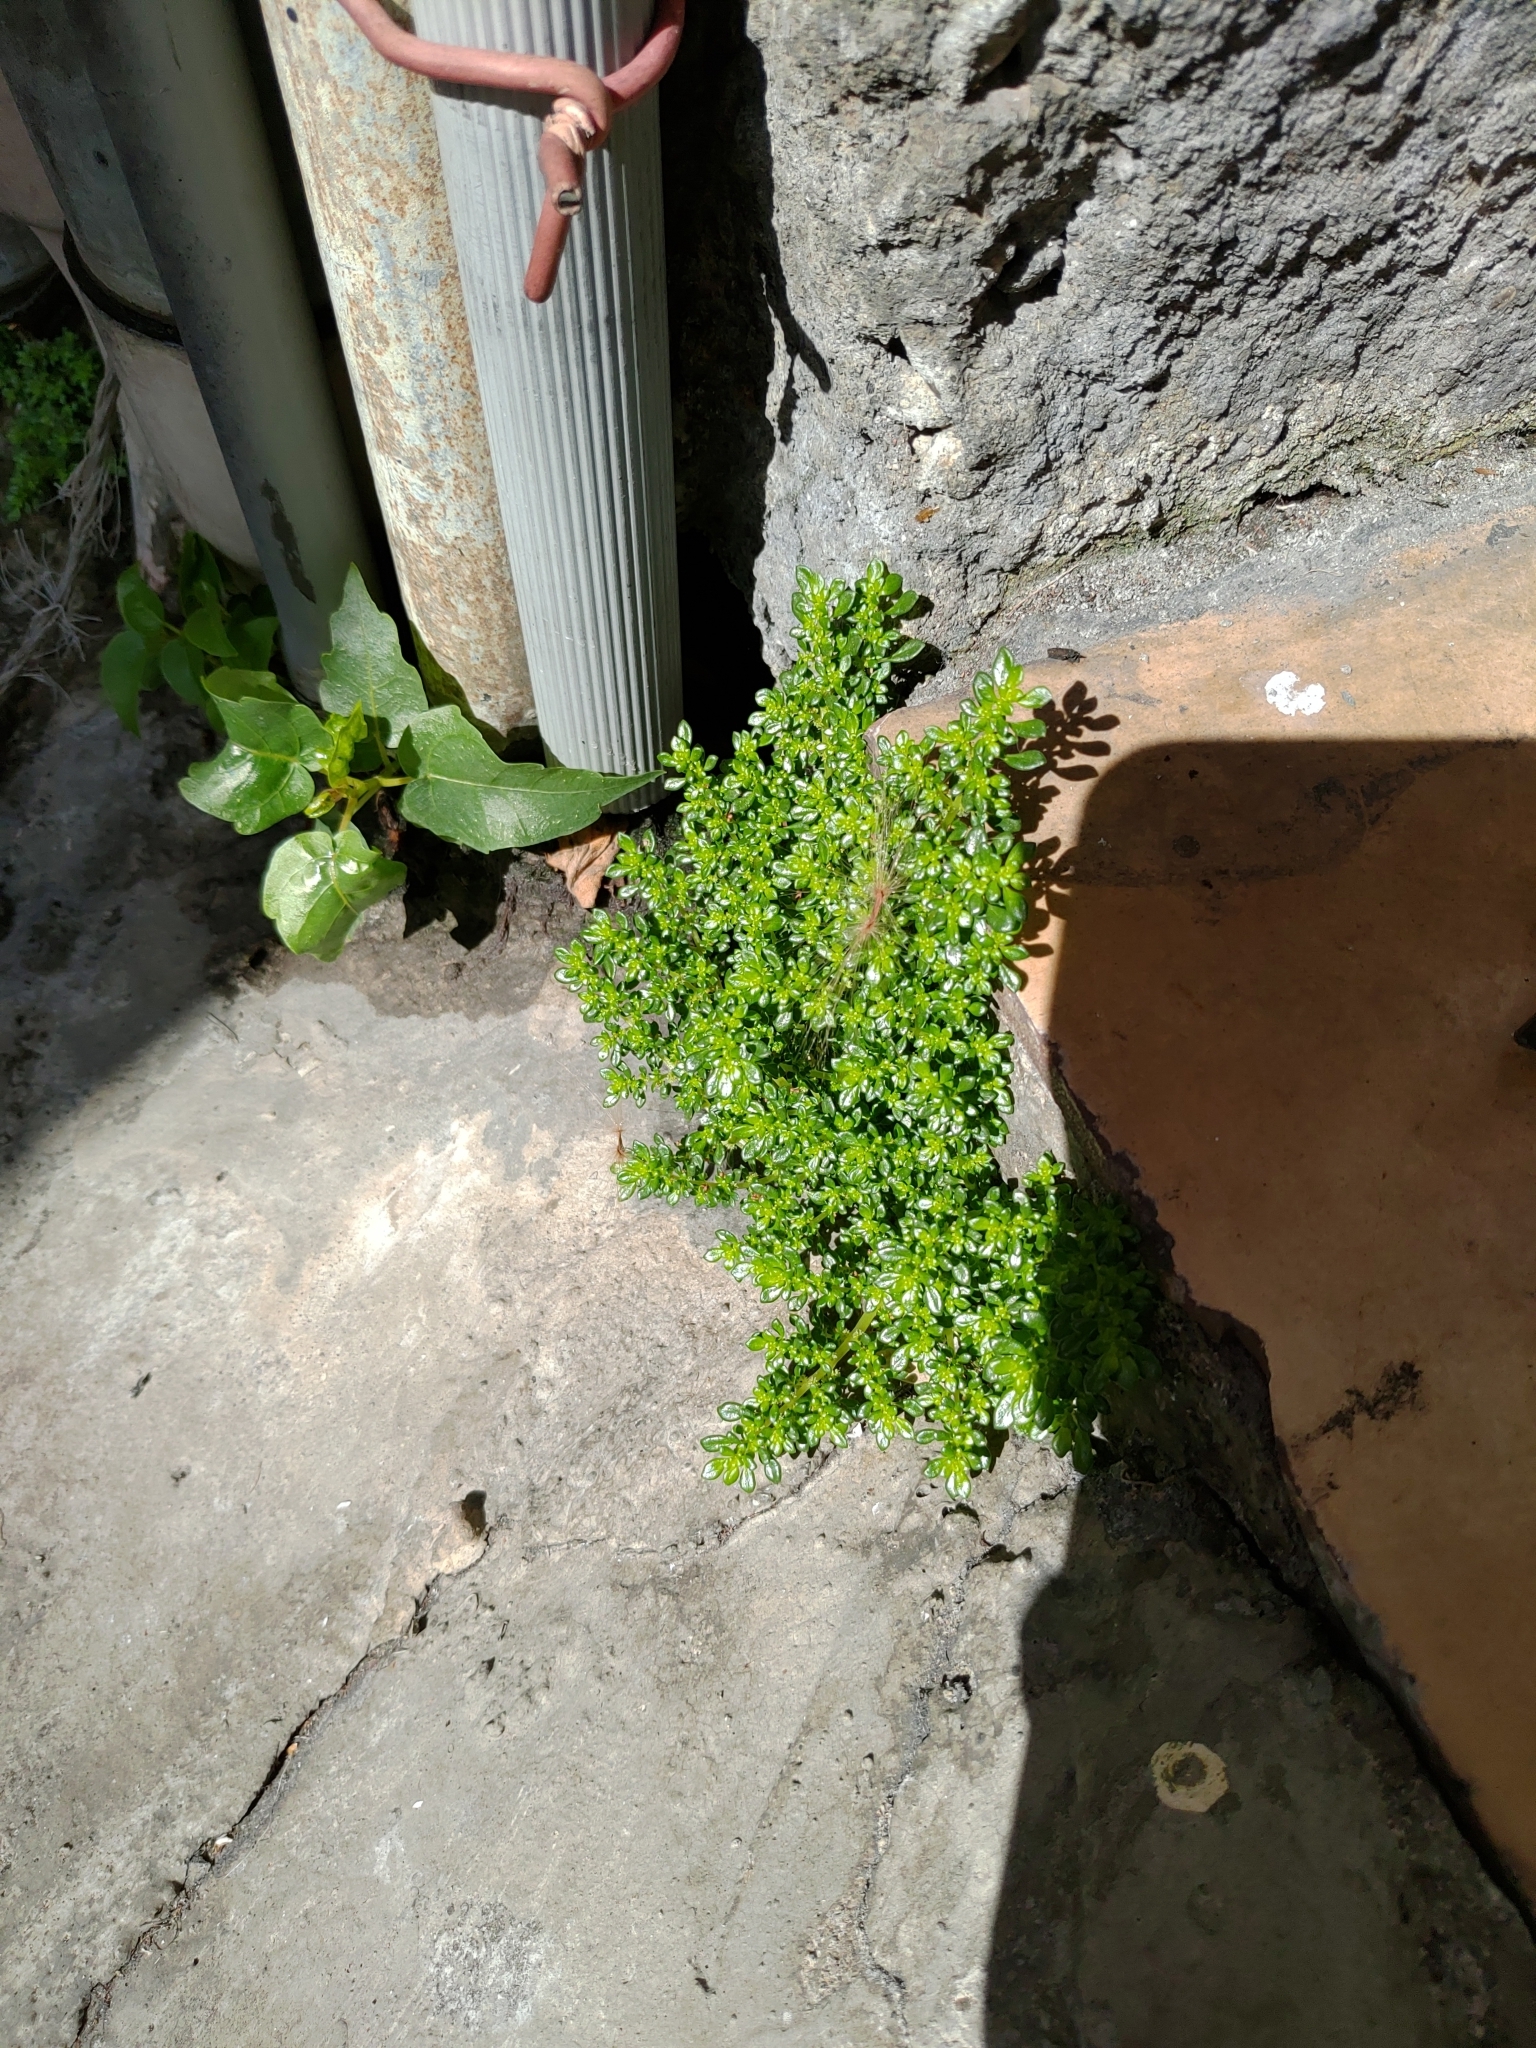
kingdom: Plantae
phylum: Tracheophyta
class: Magnoliopsida
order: Rosales
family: Urticaceae
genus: Pilea
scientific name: Pilea microphylla
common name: Artillery-plant
